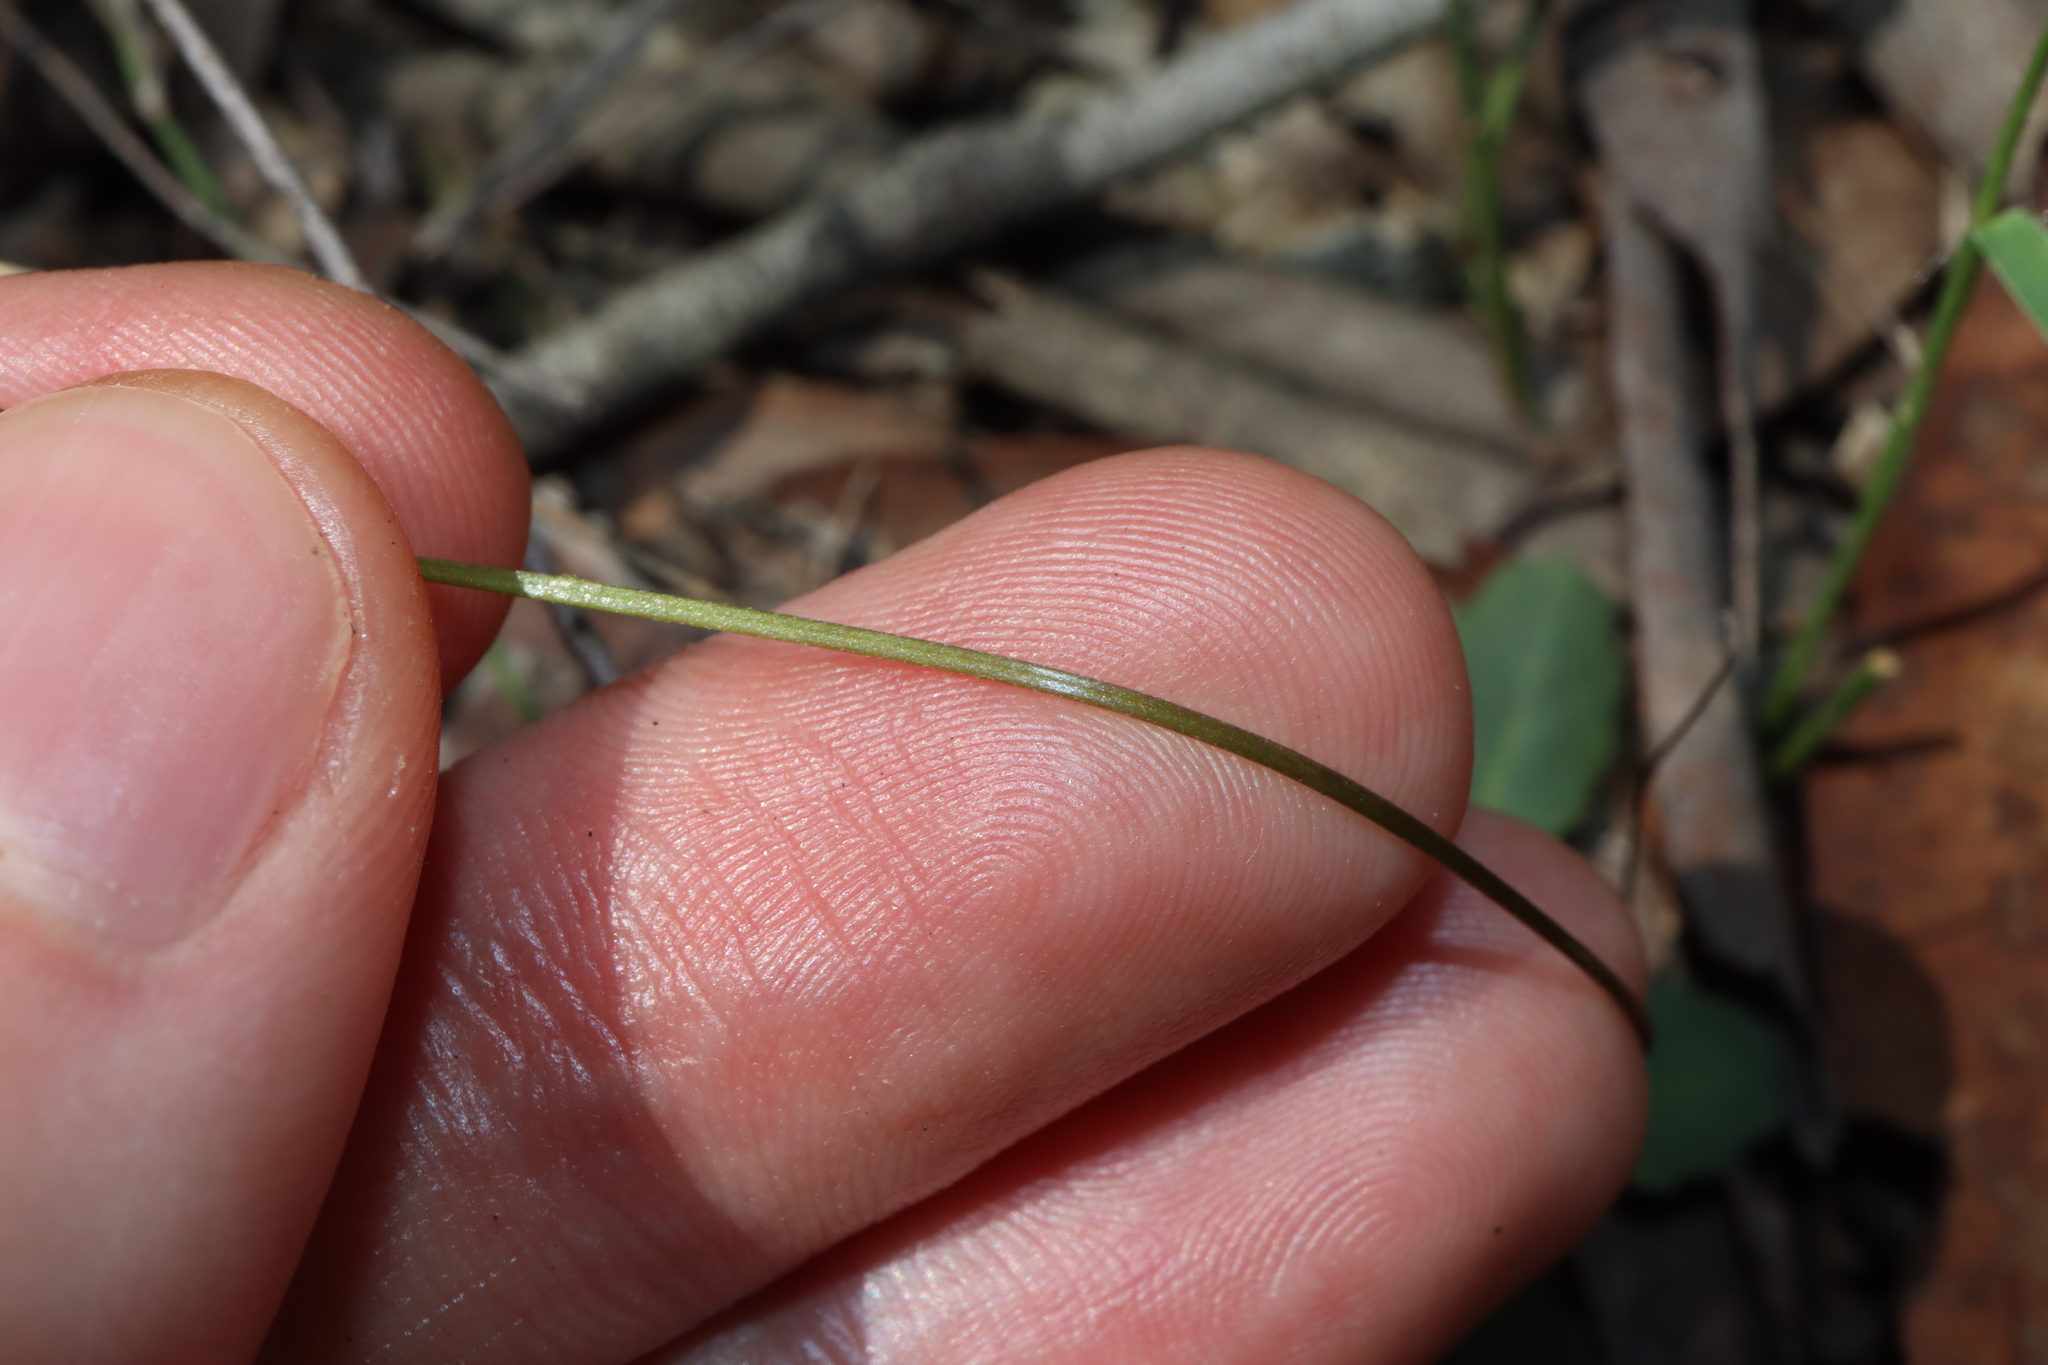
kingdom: Plantae
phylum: Tracheophyta
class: Magnoliopsida
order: Asterales
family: Asteraceae
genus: Lagenophora
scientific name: Lagenophora sublyrata ter
